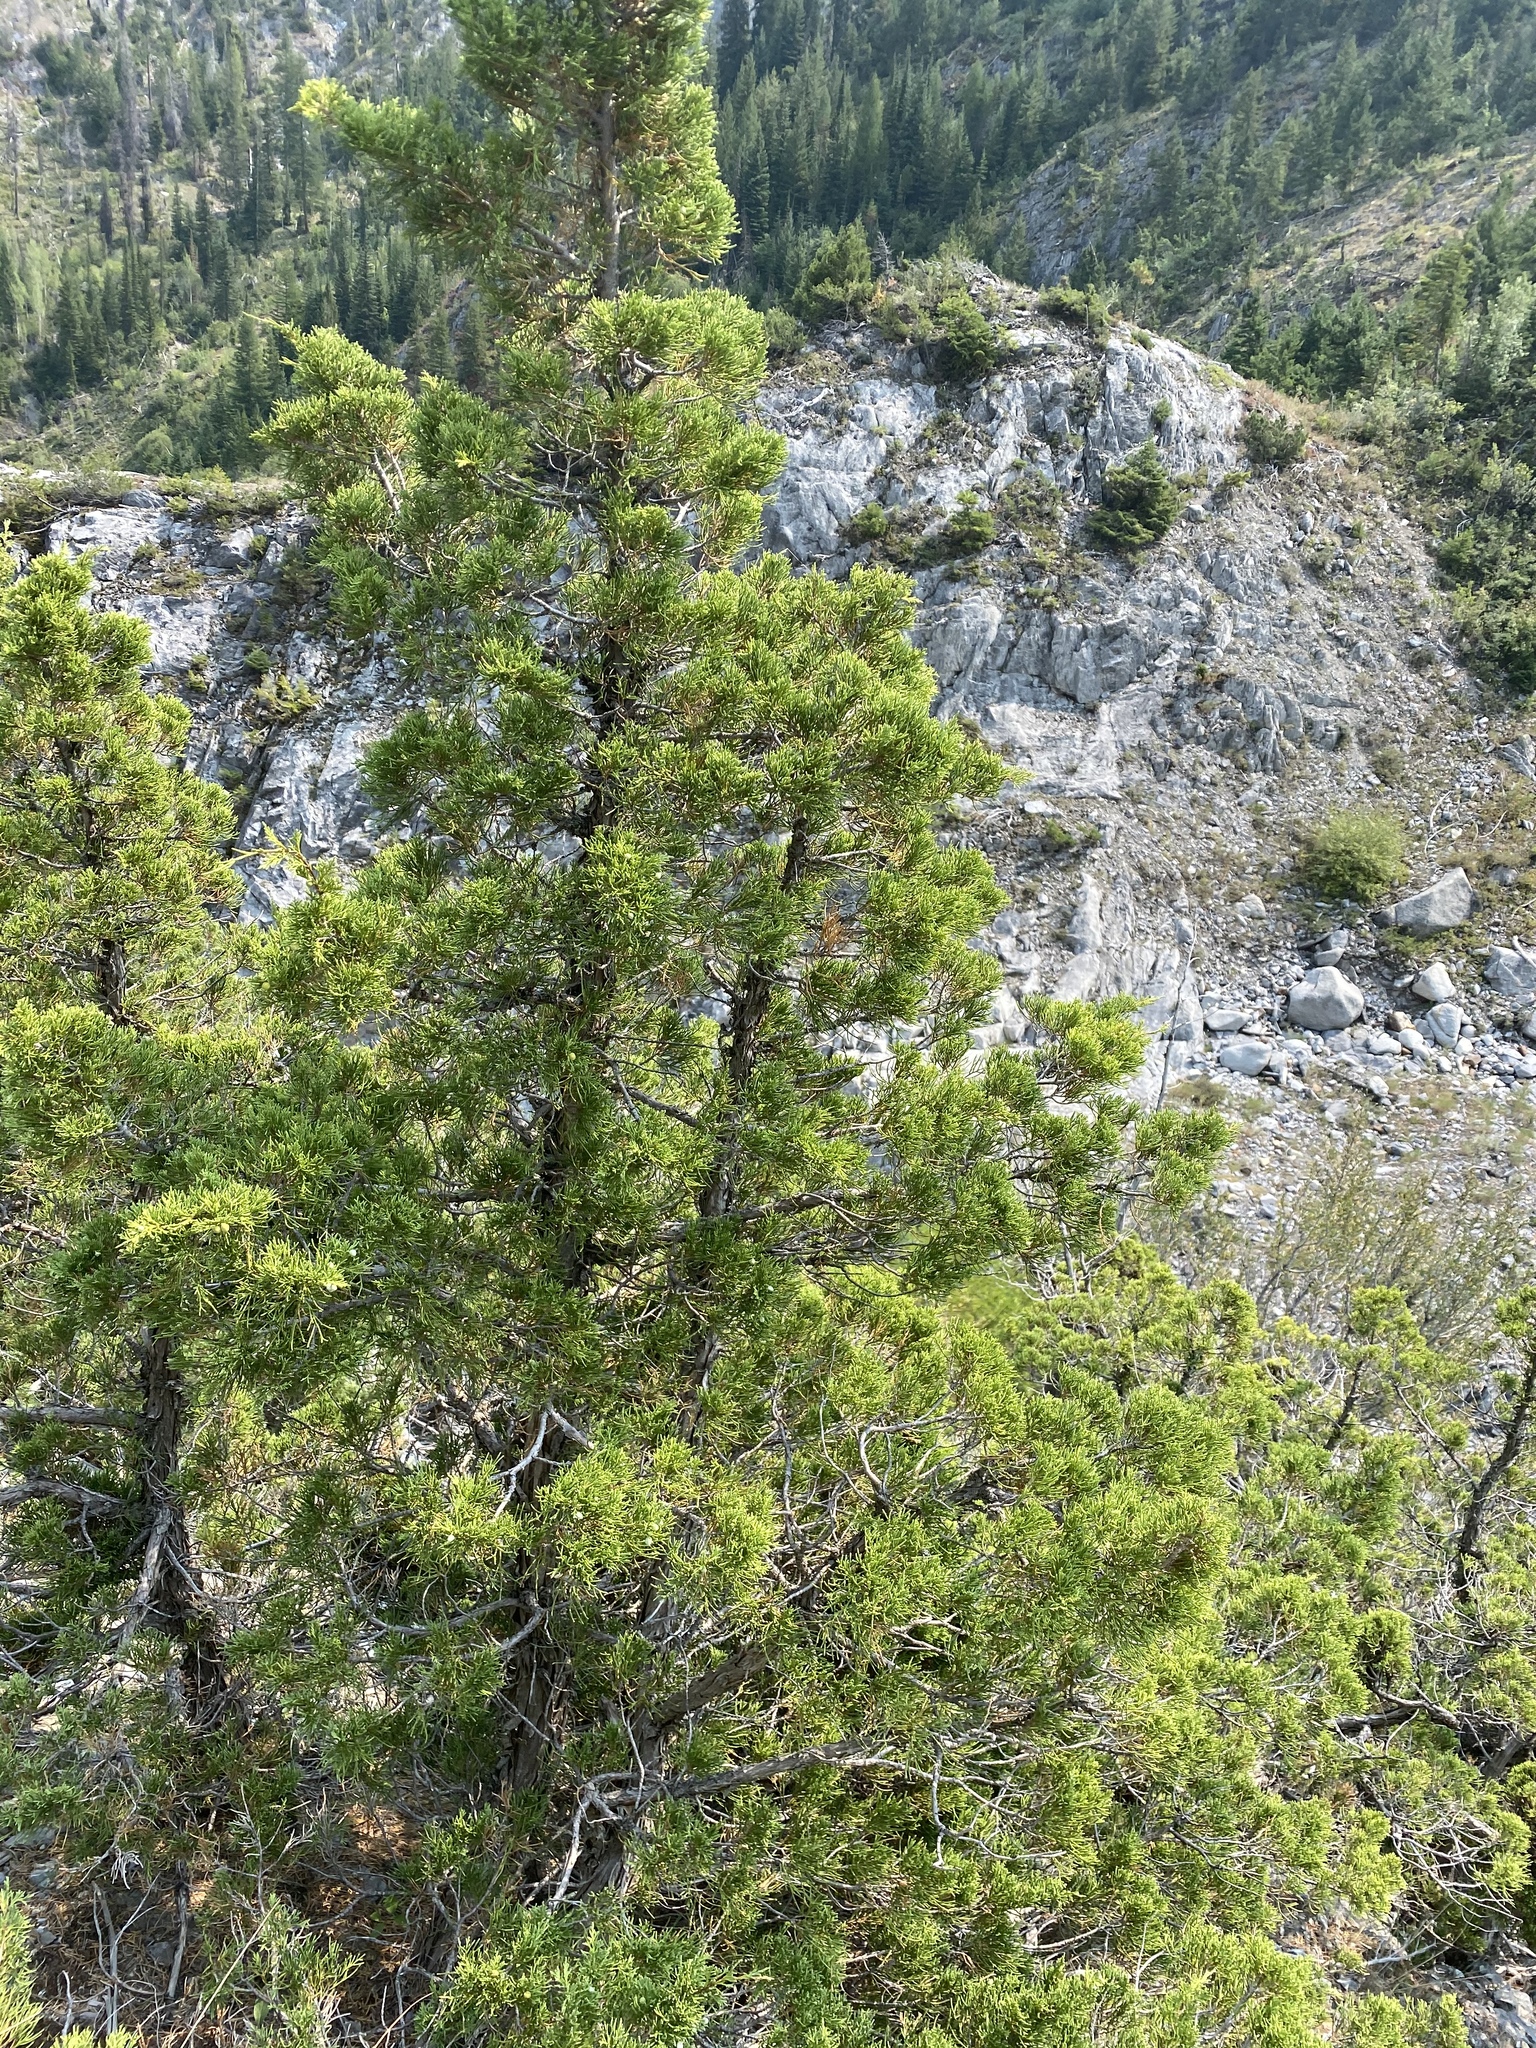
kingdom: Plantae
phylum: Tracheophyta
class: Pinopsida
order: Pinales
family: Cupressaceae
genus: Juniperus
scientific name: Juniperus scopulorum
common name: Rocky mountain juniper
